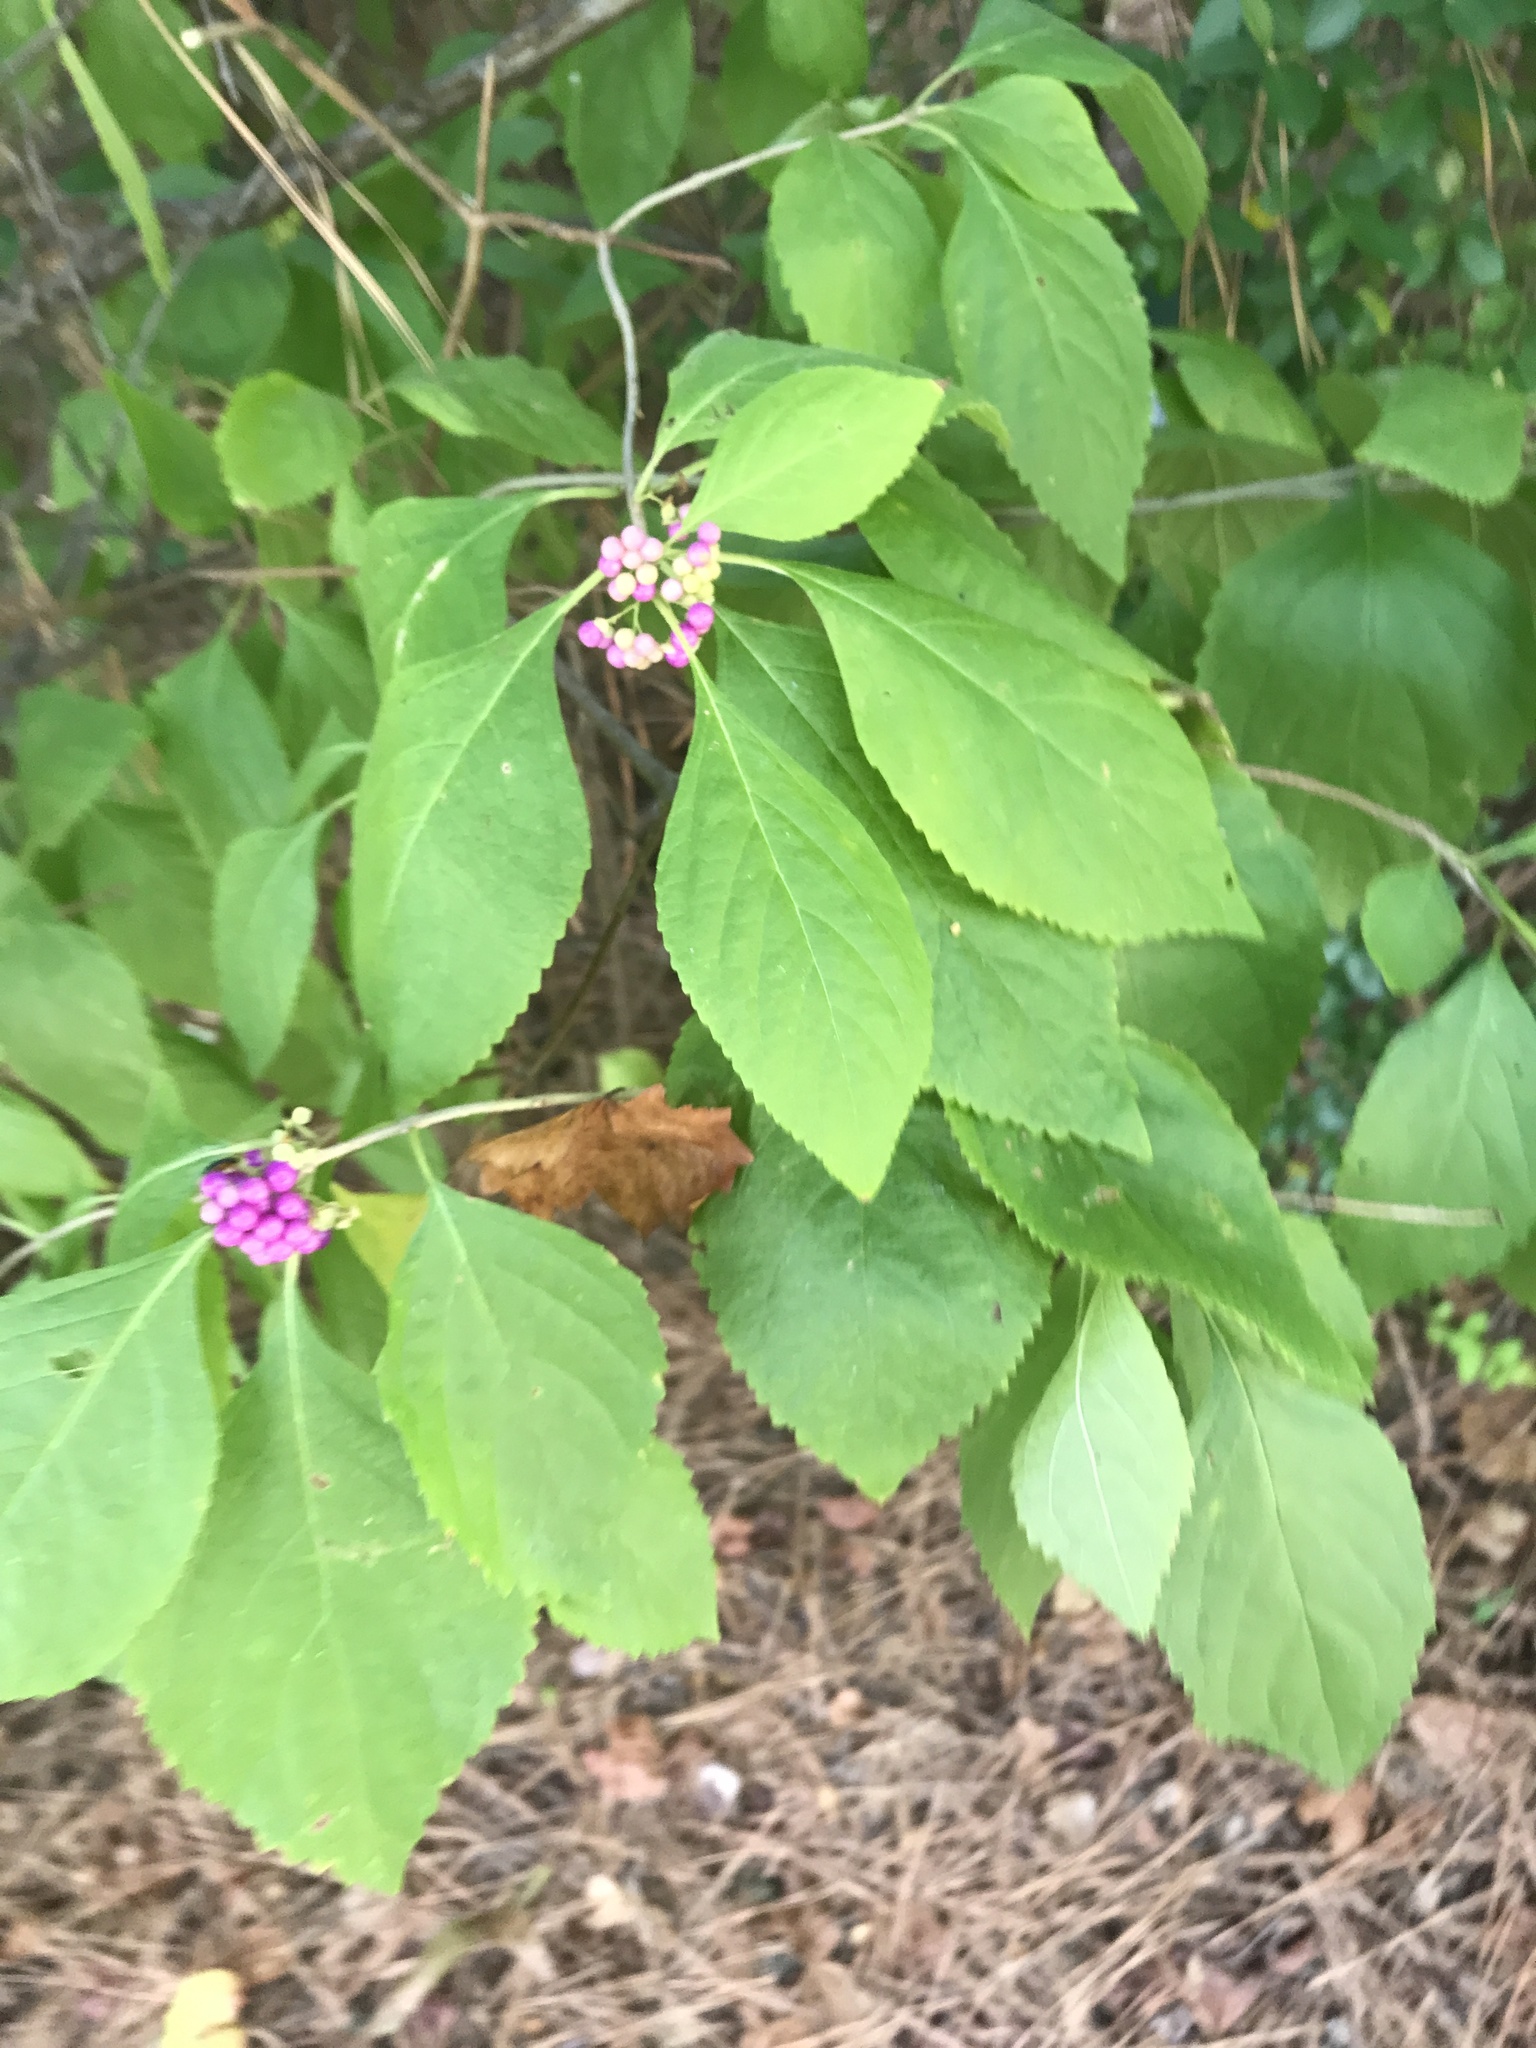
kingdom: Plantae
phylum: Tracheophyta
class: Magnoliopsida
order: Lamiales
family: Lamiaceae
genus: Callicarpa
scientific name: Callicarpa americana
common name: American beautyberry
